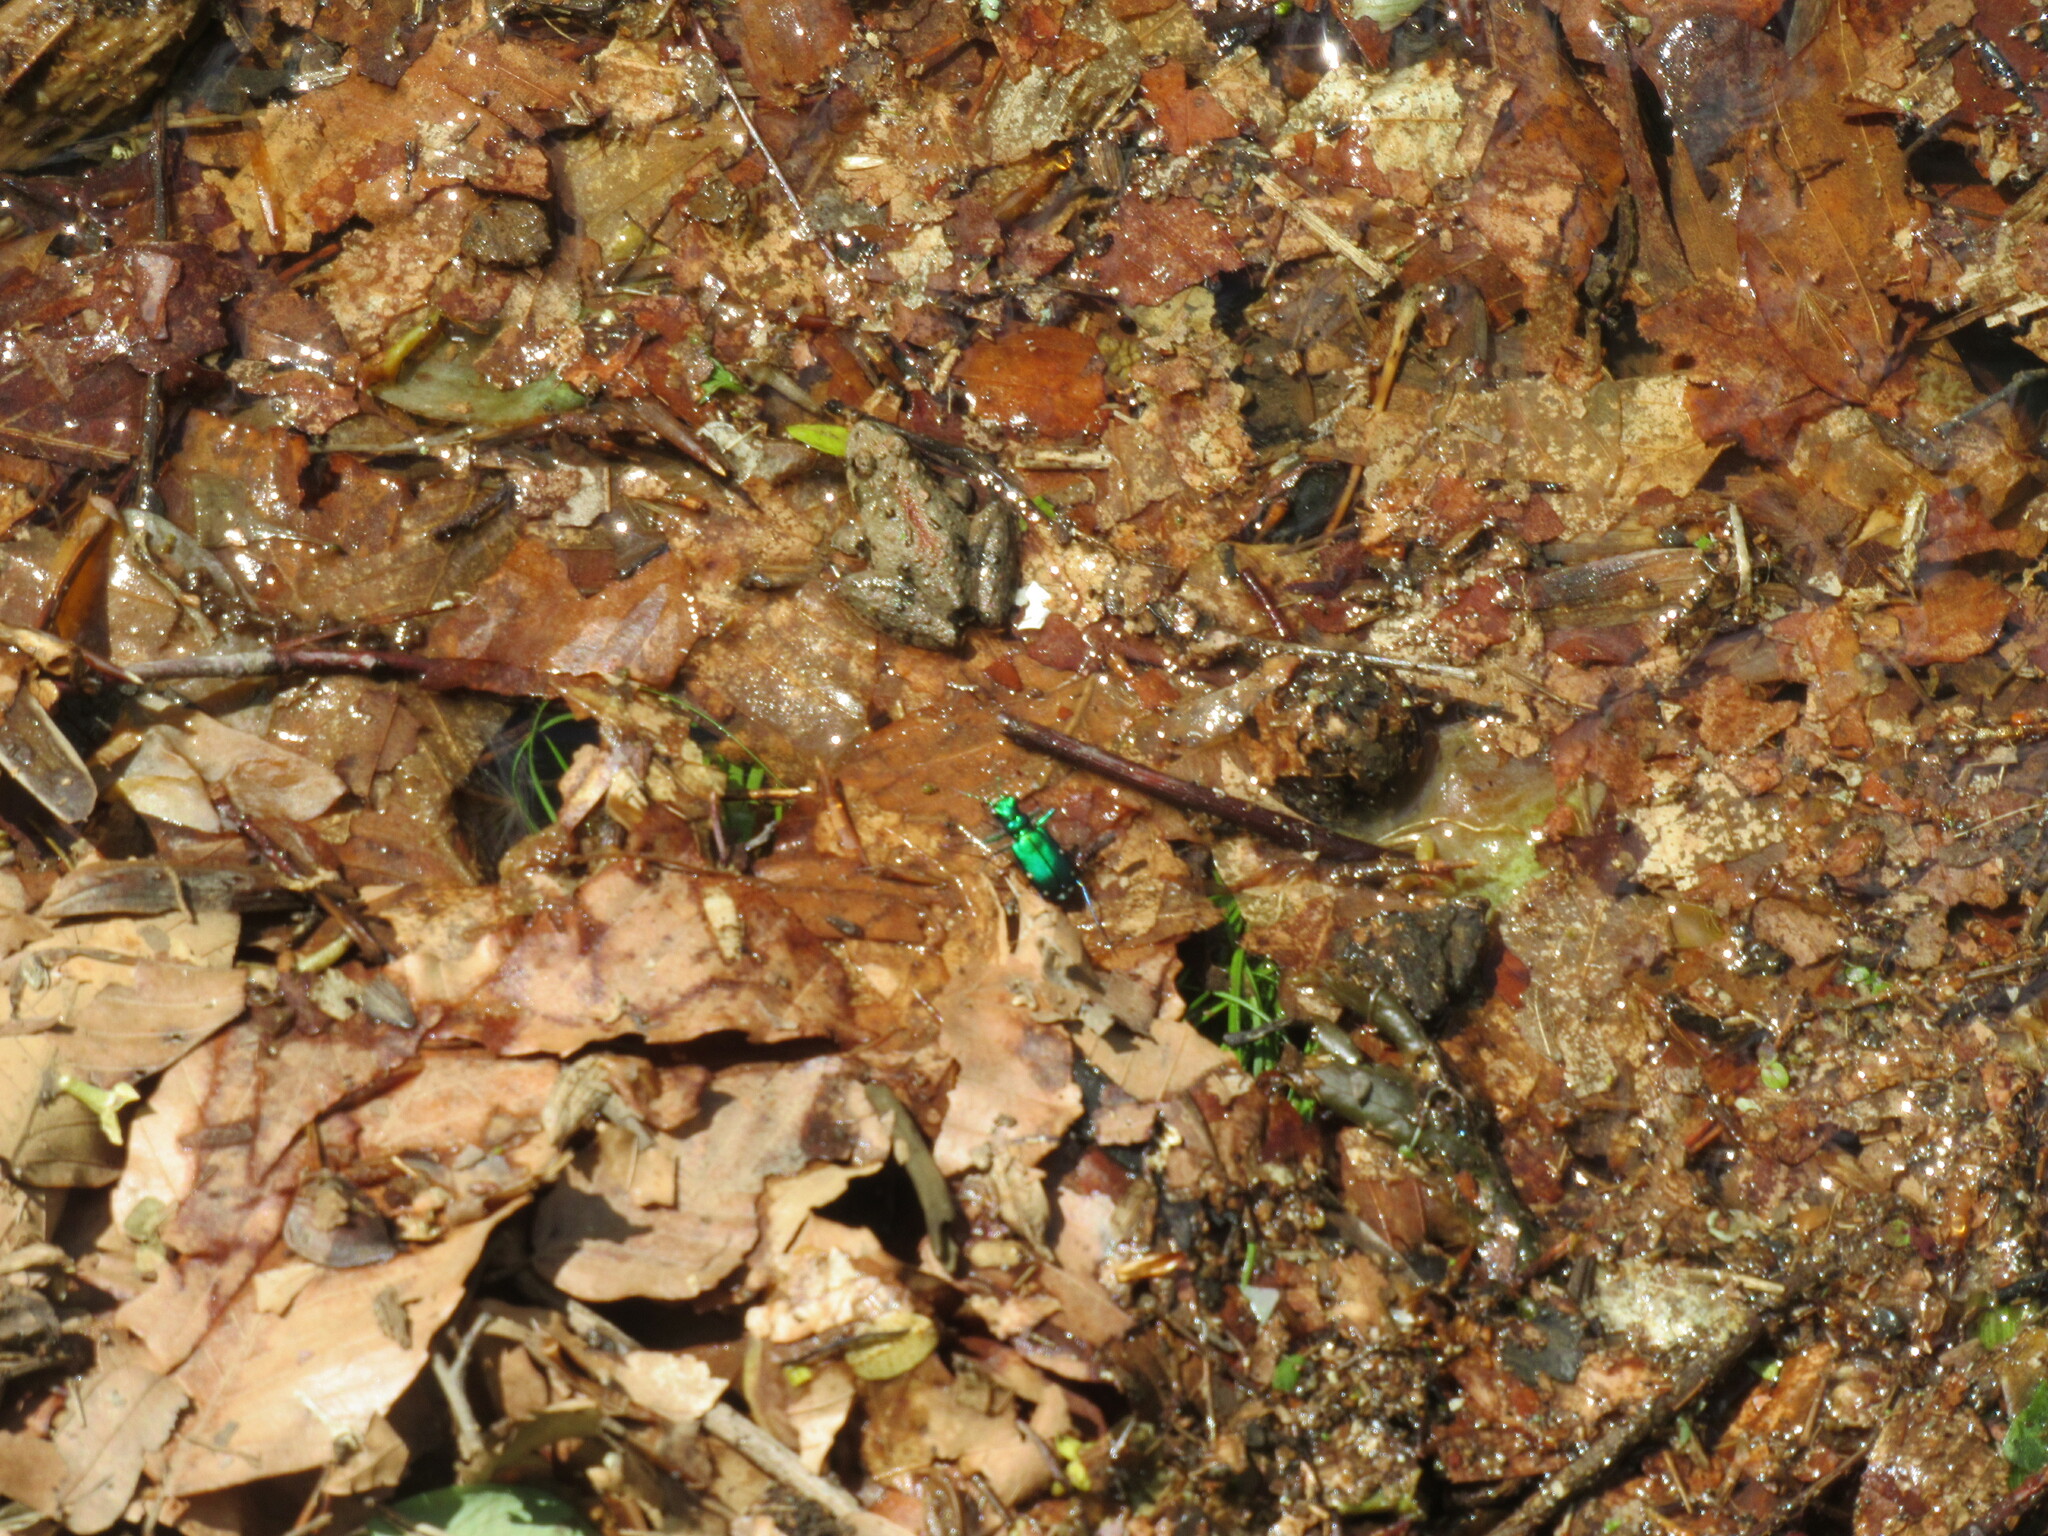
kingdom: Animalia
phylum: Arthropoda
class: Insecta
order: Coleoptera
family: Carabidae
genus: Cicindela
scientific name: Cicindela sexguttata
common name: Six-spotted tiger beetle
